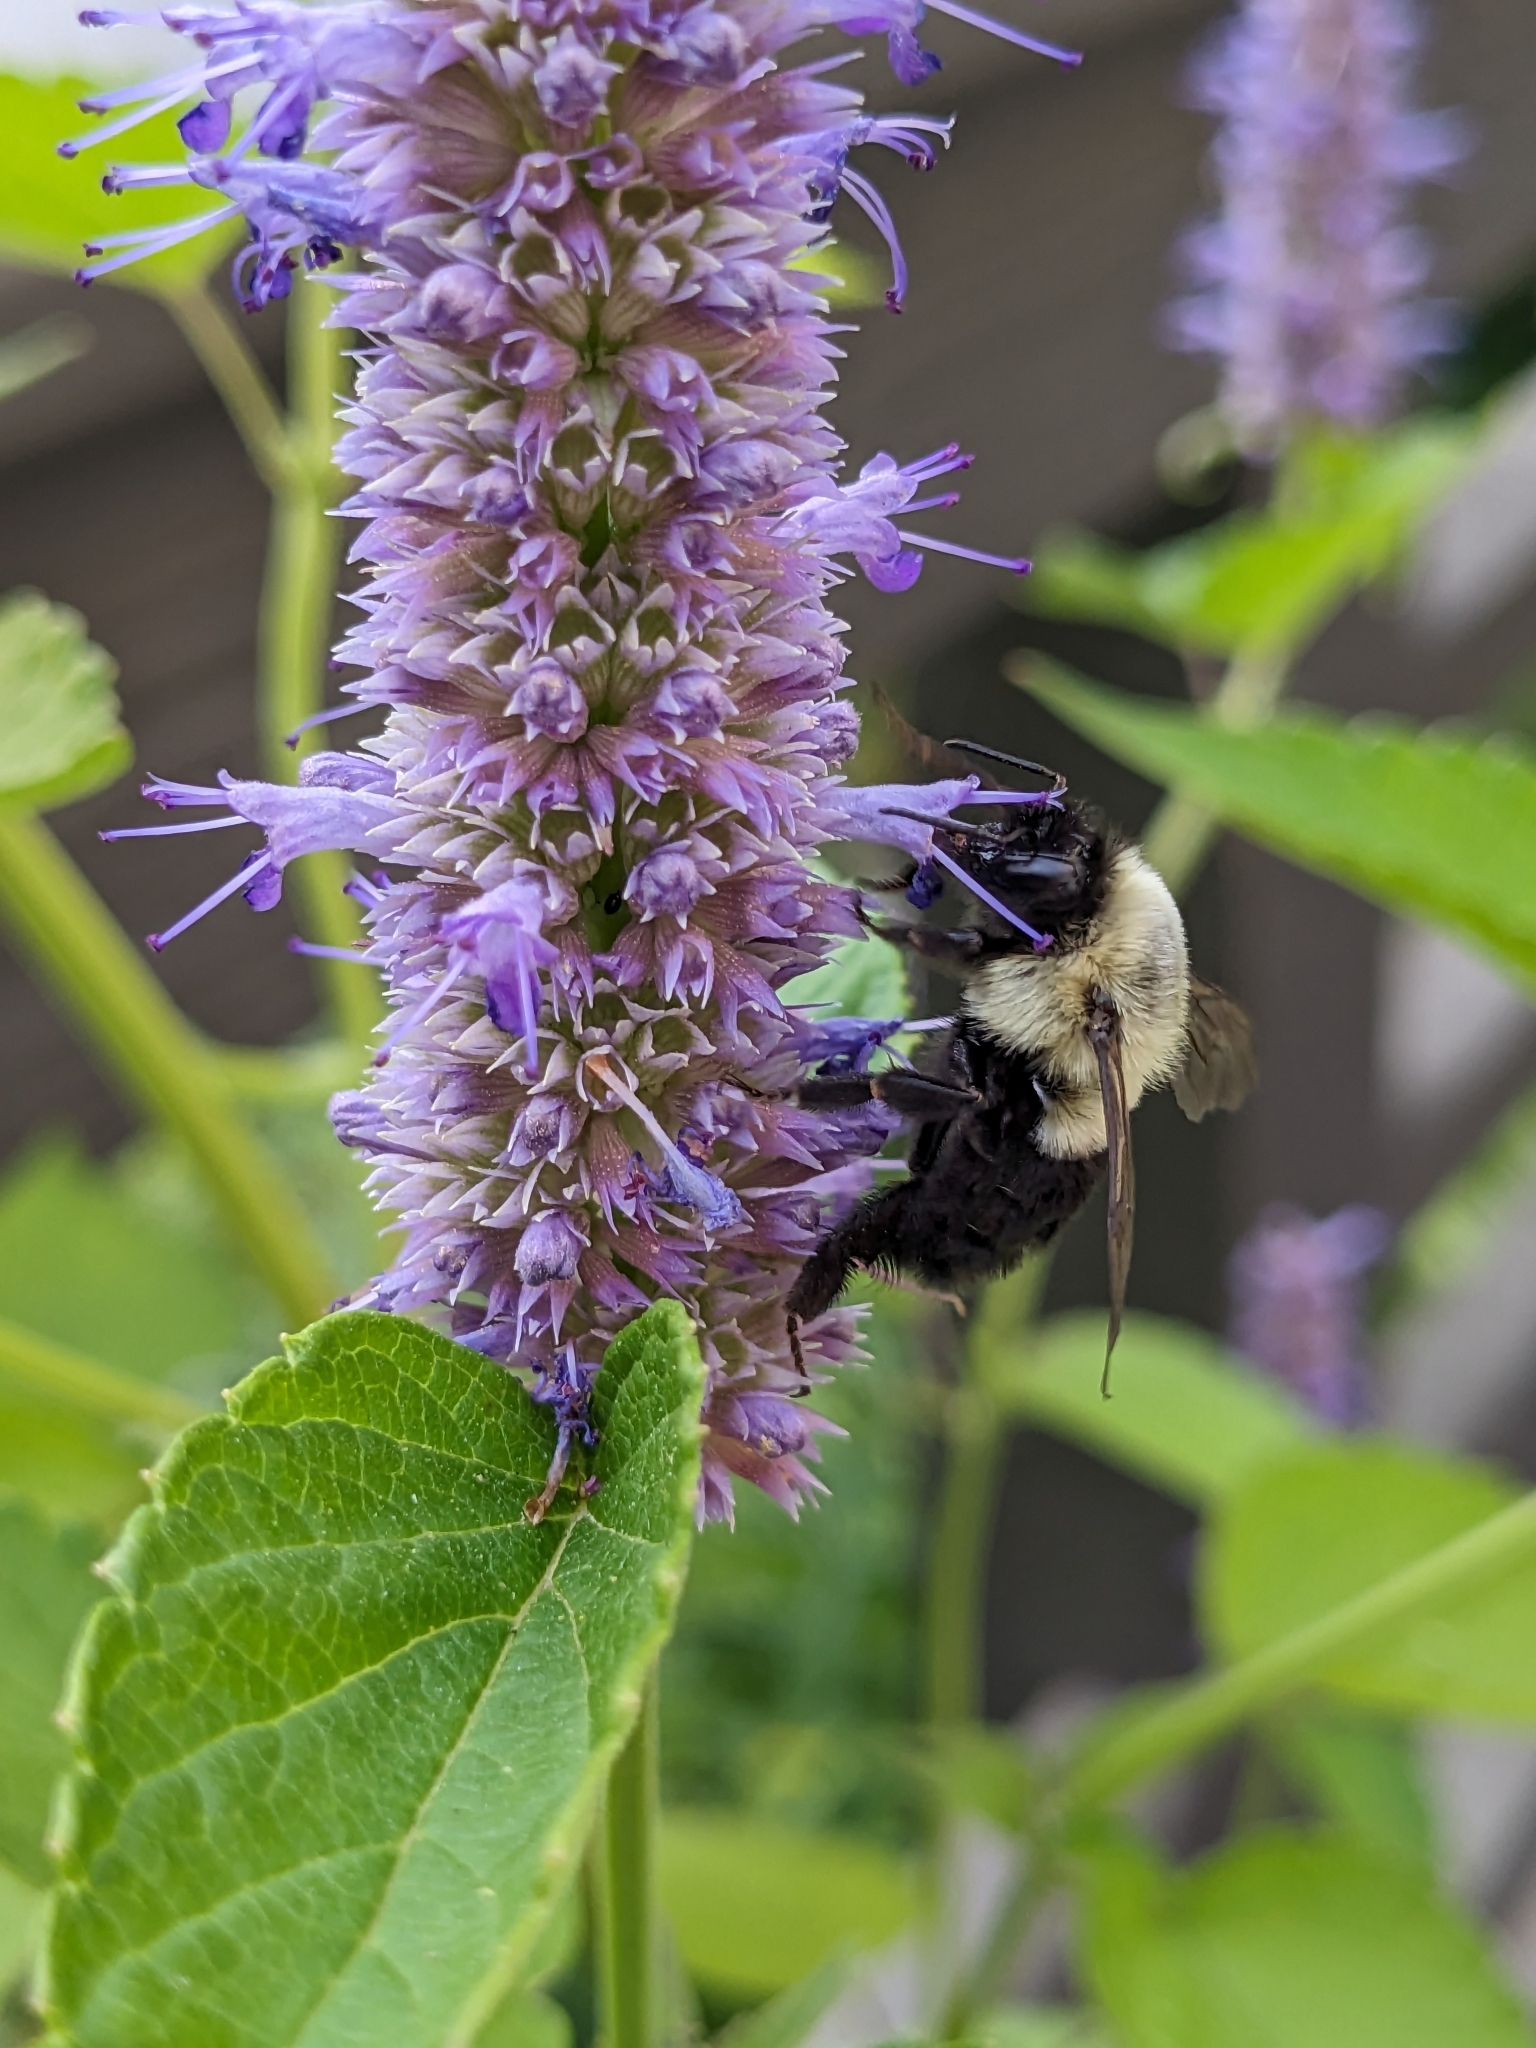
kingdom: Animalia
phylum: Arthropoda
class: Insecta
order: Hymenoptera
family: Apidae
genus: Bombus
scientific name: Bombus impatiens
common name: Common eastern bumble bee
